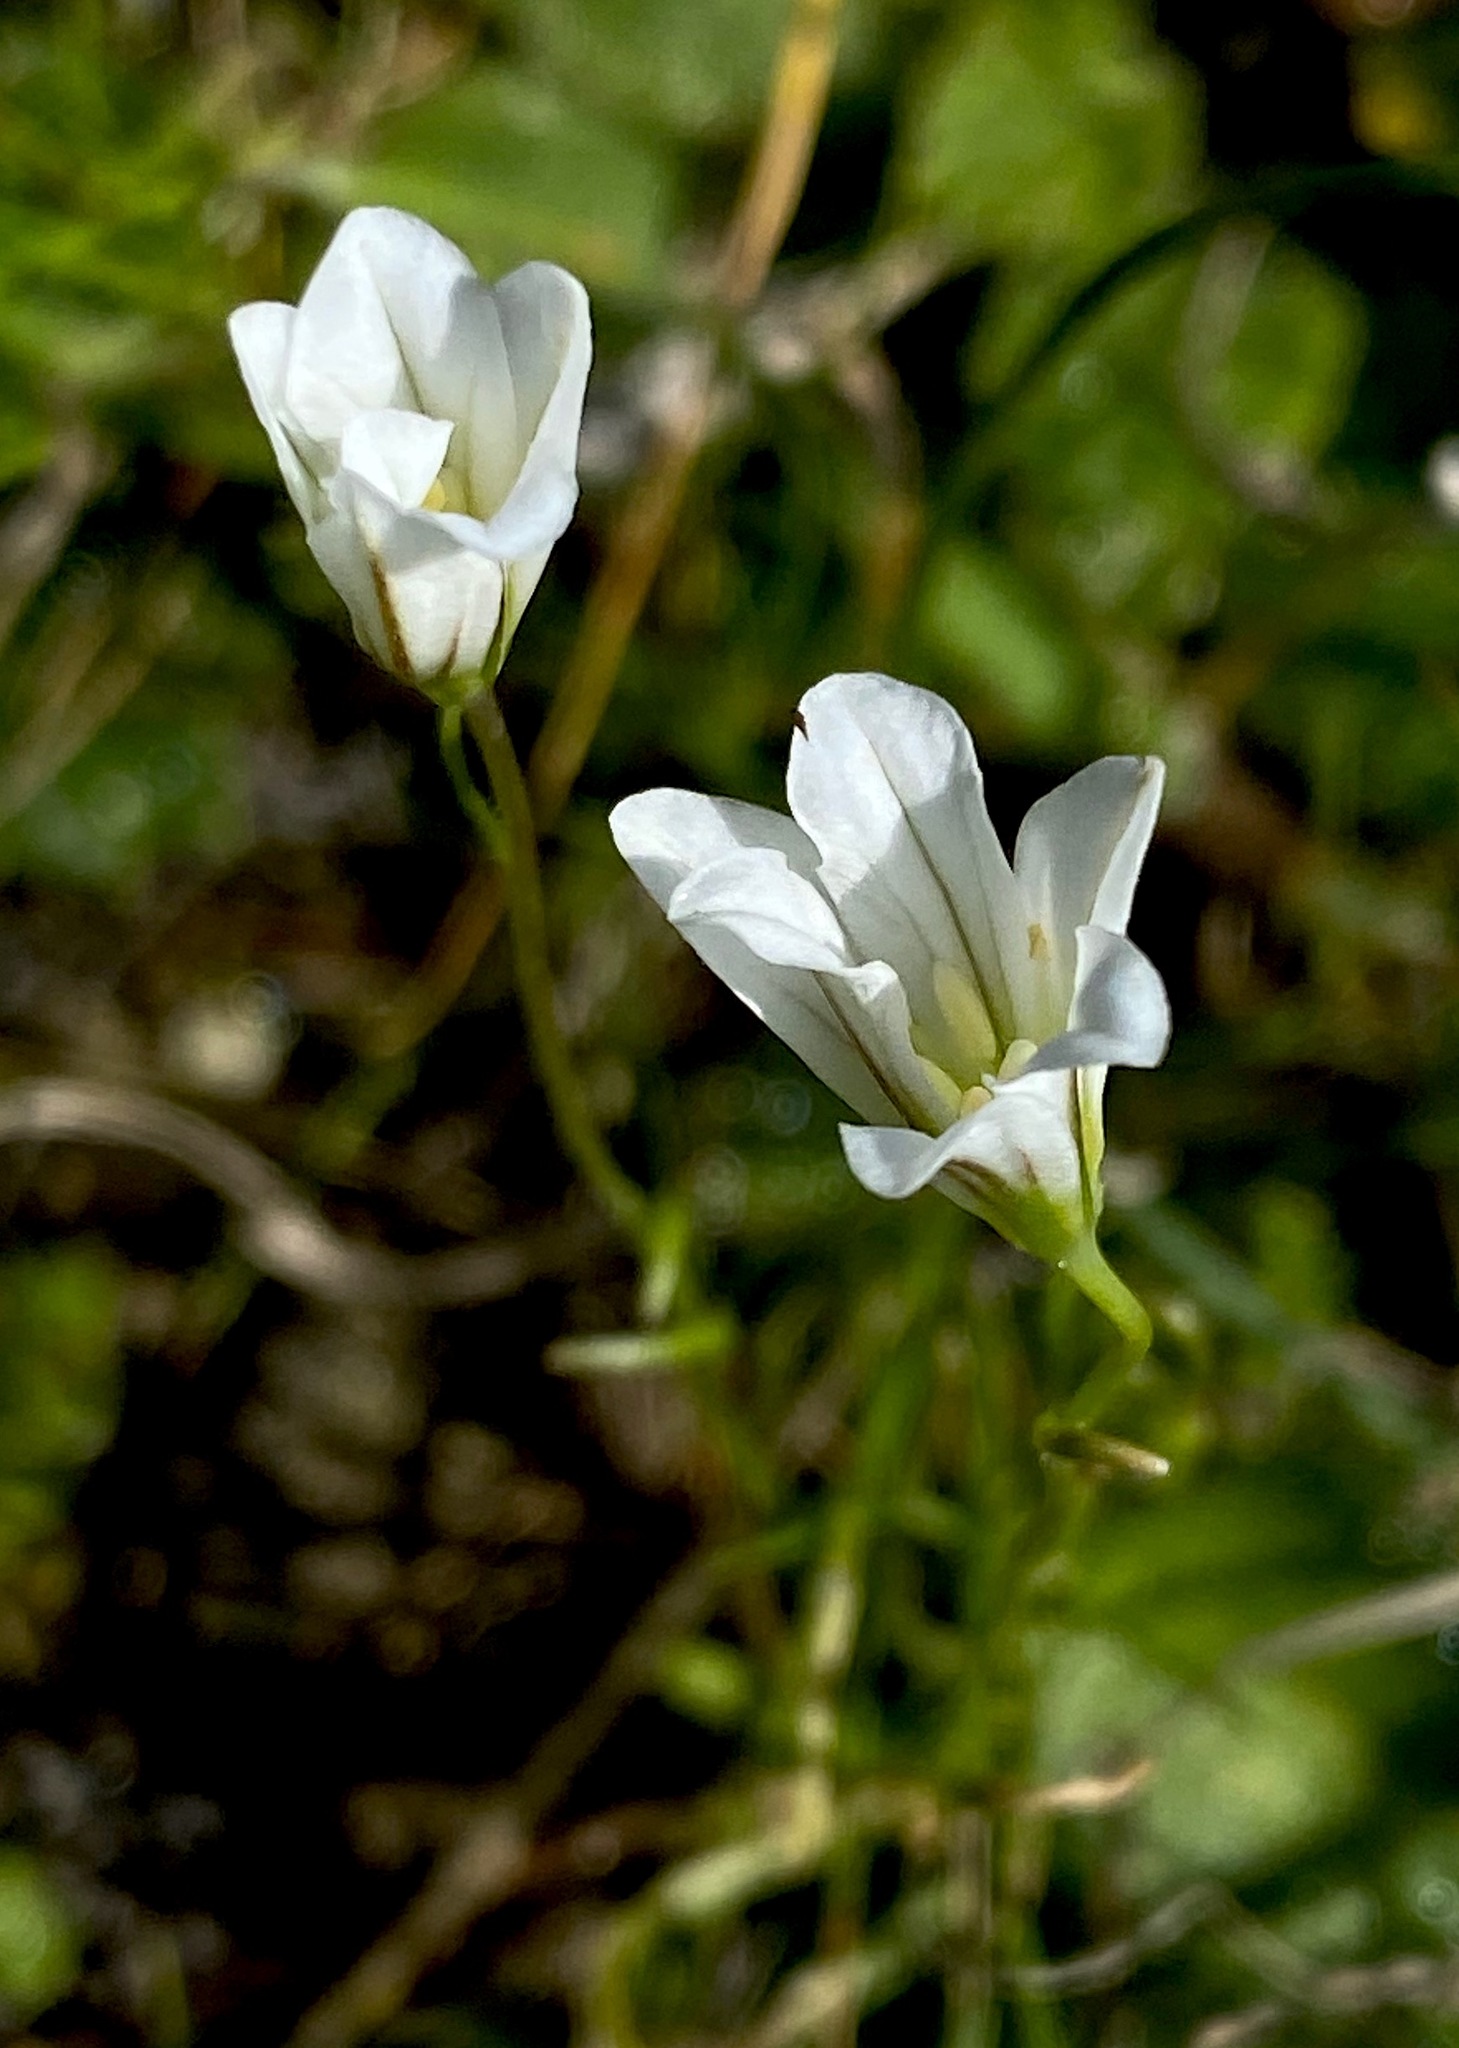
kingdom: Plantae
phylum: Tracheophyta
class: Liliopsida
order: Liliales
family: Liliaceae
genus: Gagea
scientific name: Gagea graeca
